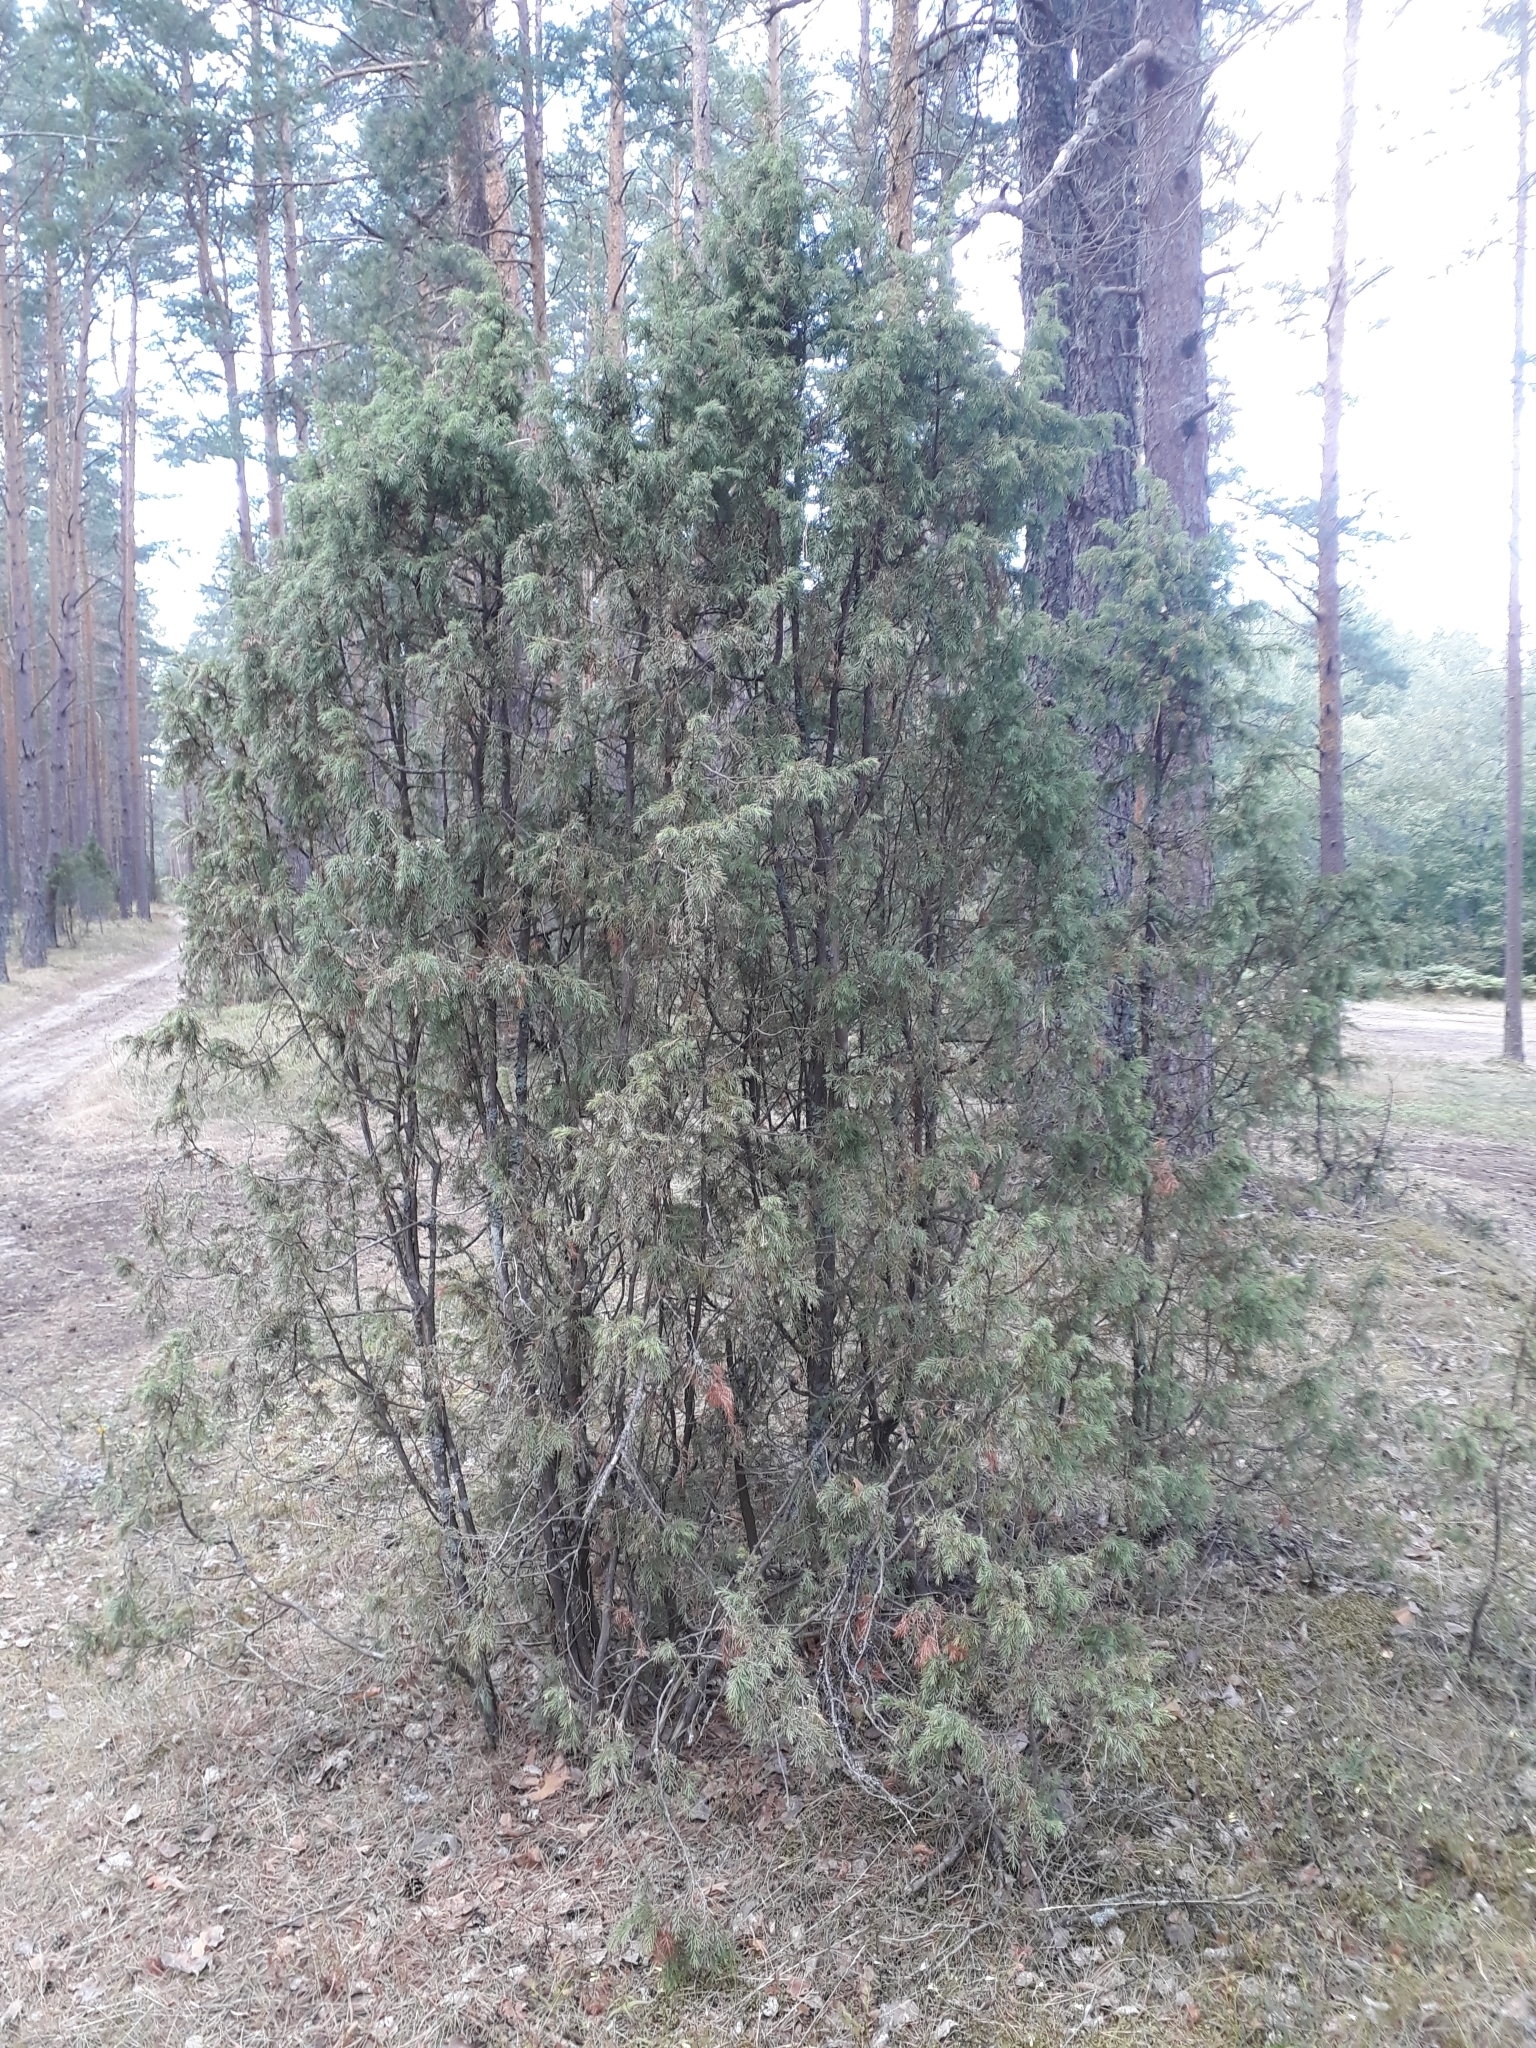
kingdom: Plantae
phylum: Tracheophyta
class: Pinopsida
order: Pinales
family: Cupressaceae
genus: Juniperus
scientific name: Juniperus communis
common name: Common juniper
